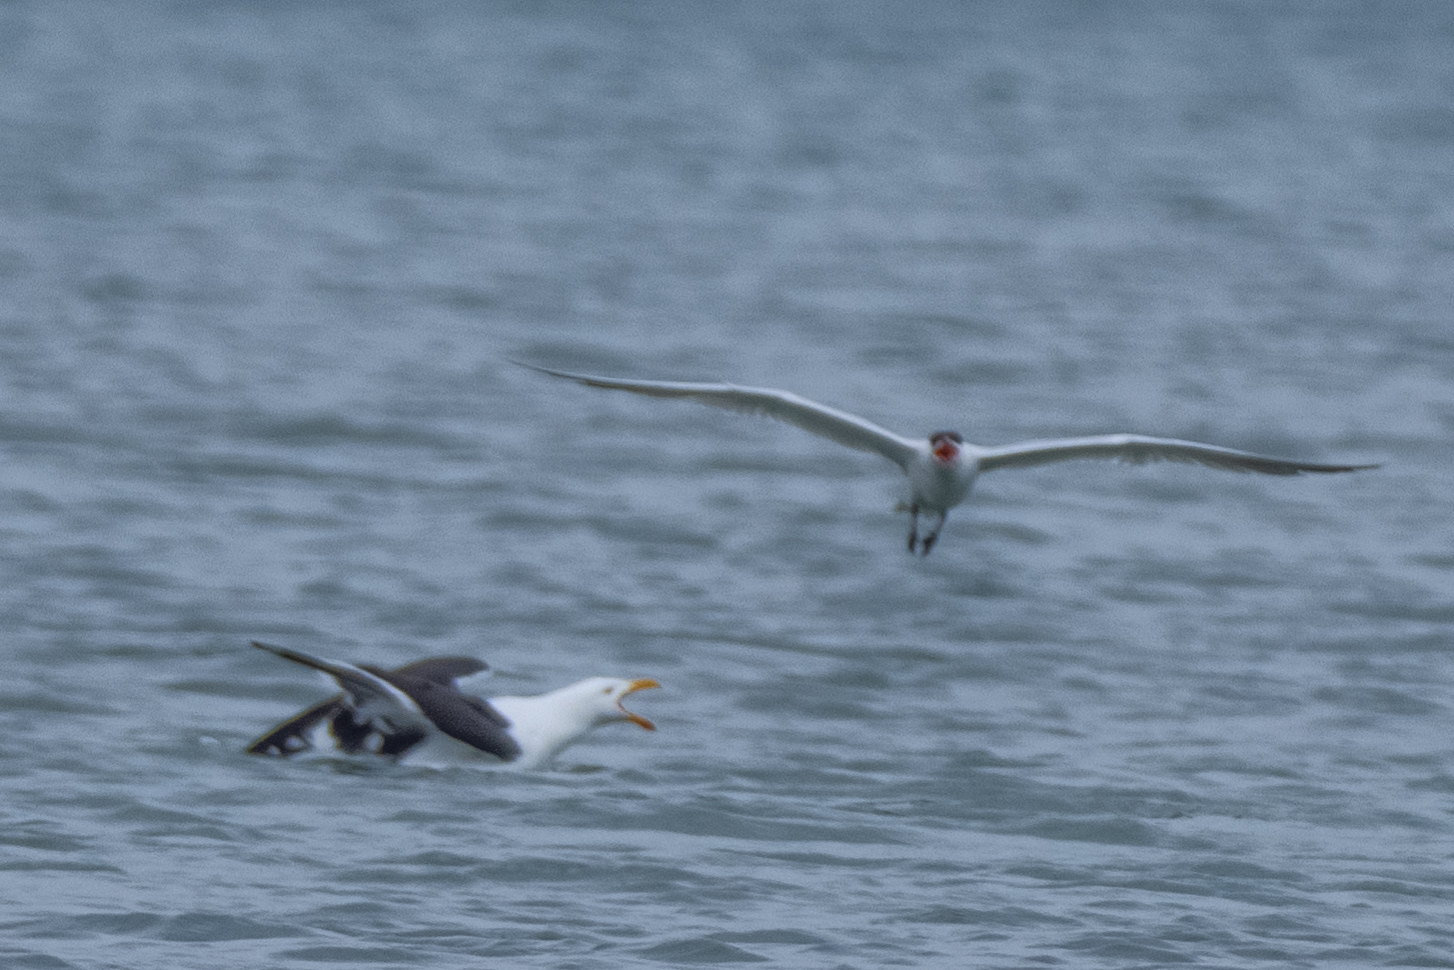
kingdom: Animalia
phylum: Chordata
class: Aves
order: Charadriiformes
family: Laridae
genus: Hydroprogne
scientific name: Hydroprogne caspia
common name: Caspian tern
